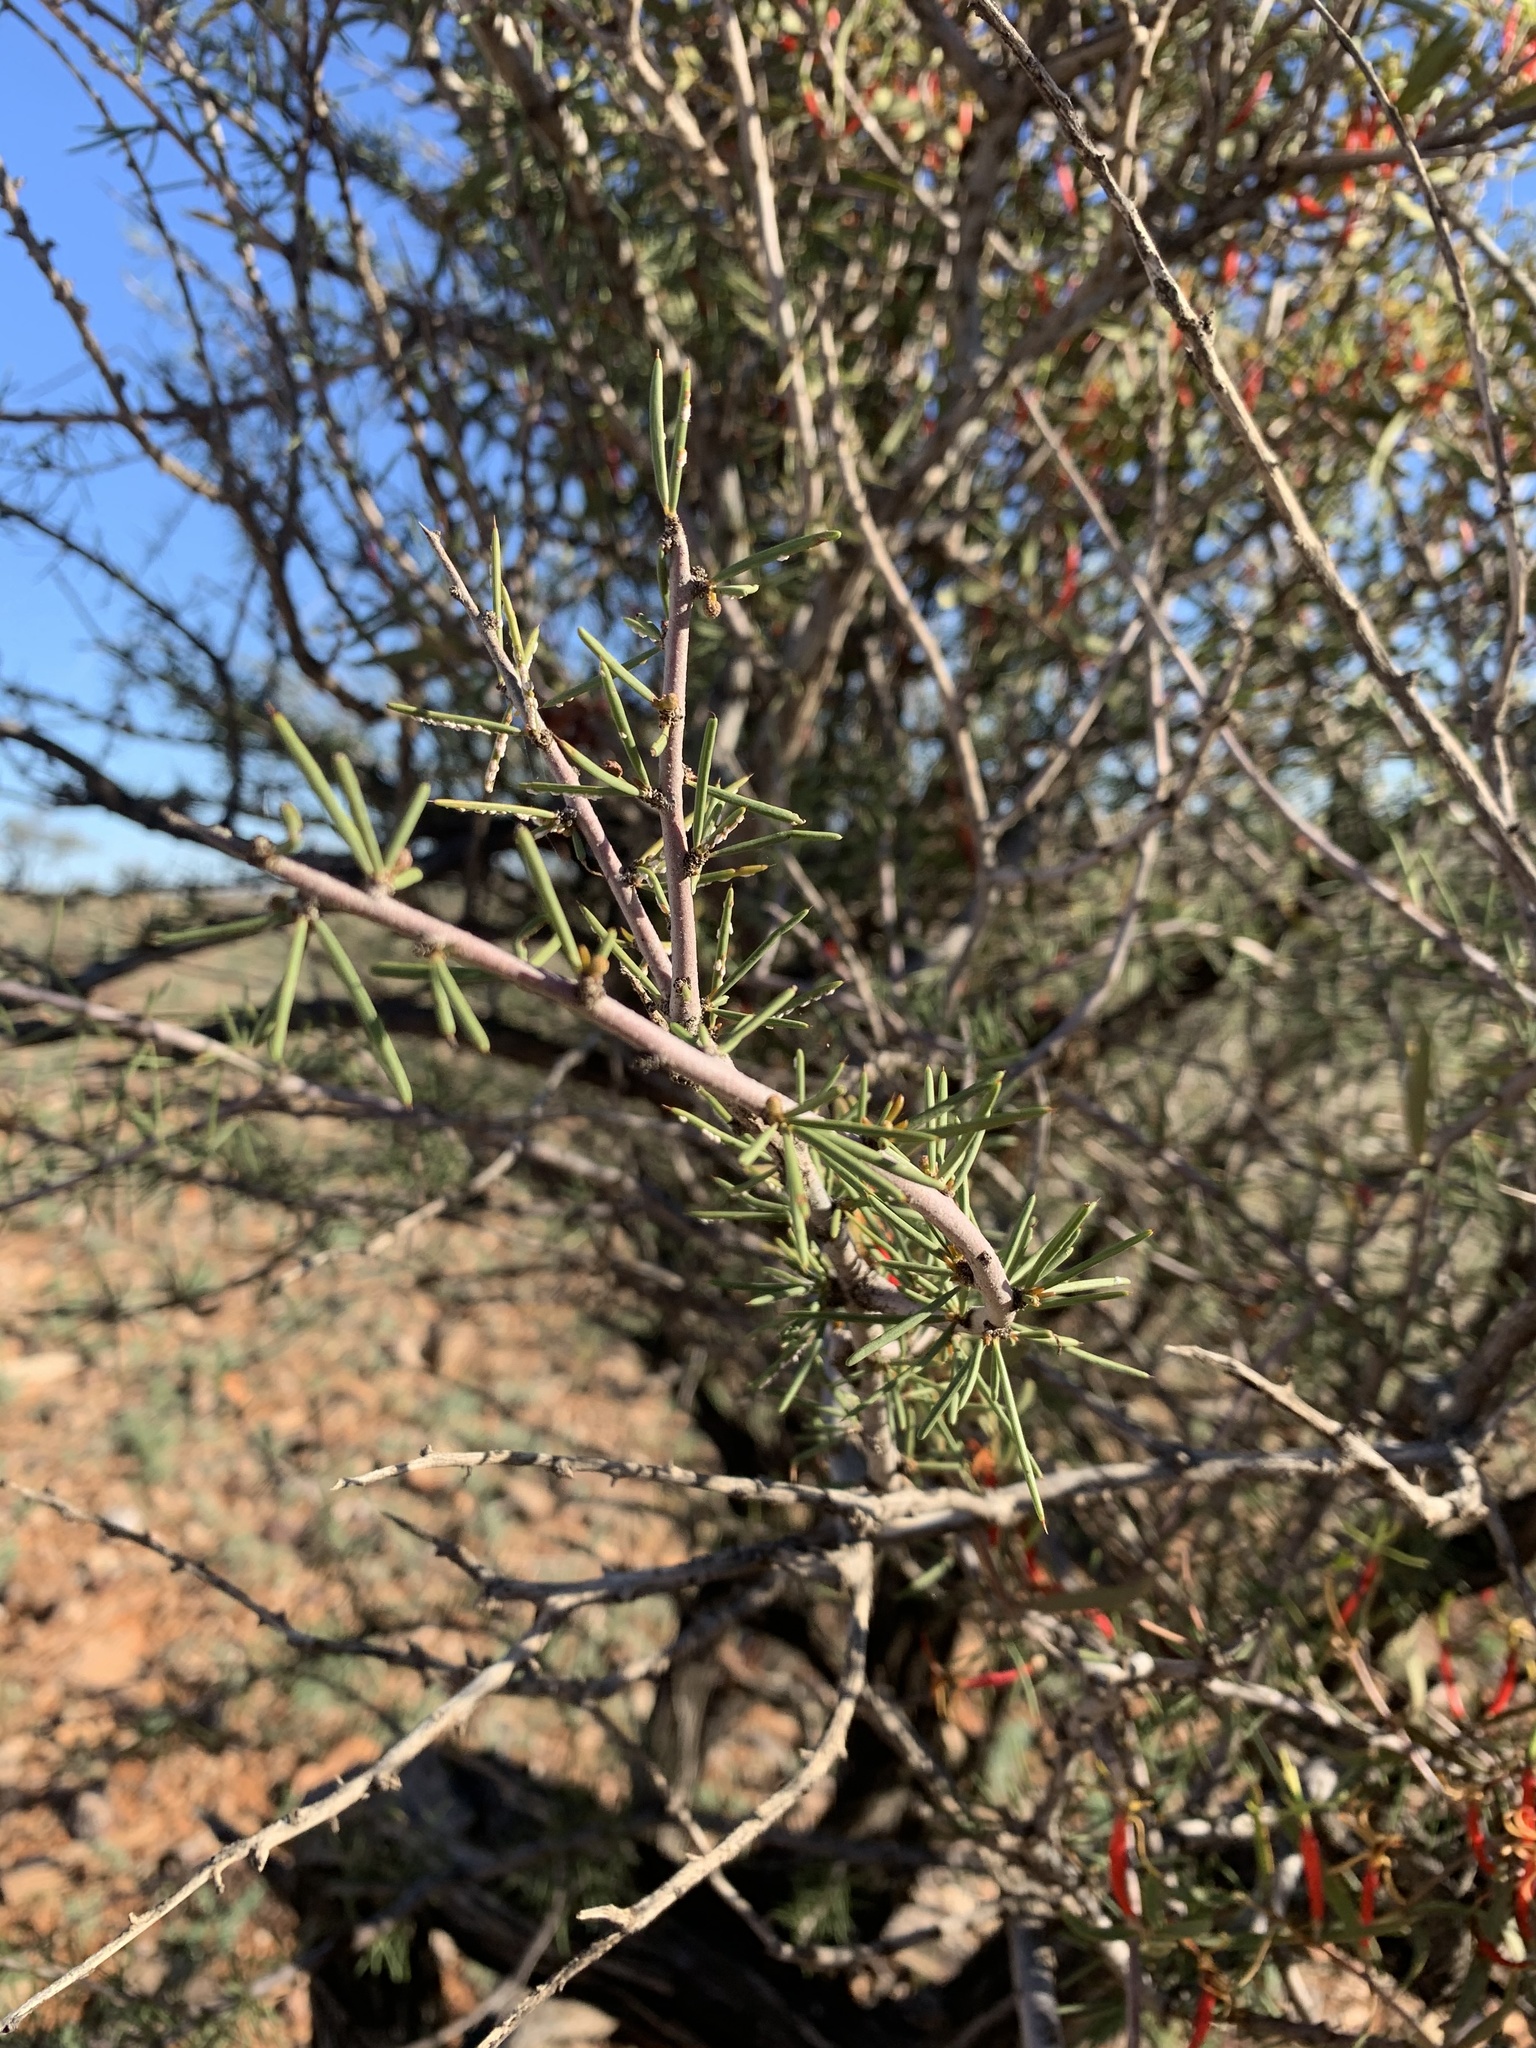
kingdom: Plantae
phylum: Tracheophyta
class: Magnoliopsida
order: Fabales
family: Fabaceae
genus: Acacia
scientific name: Acacia tetragonophylla
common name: Dead finish
